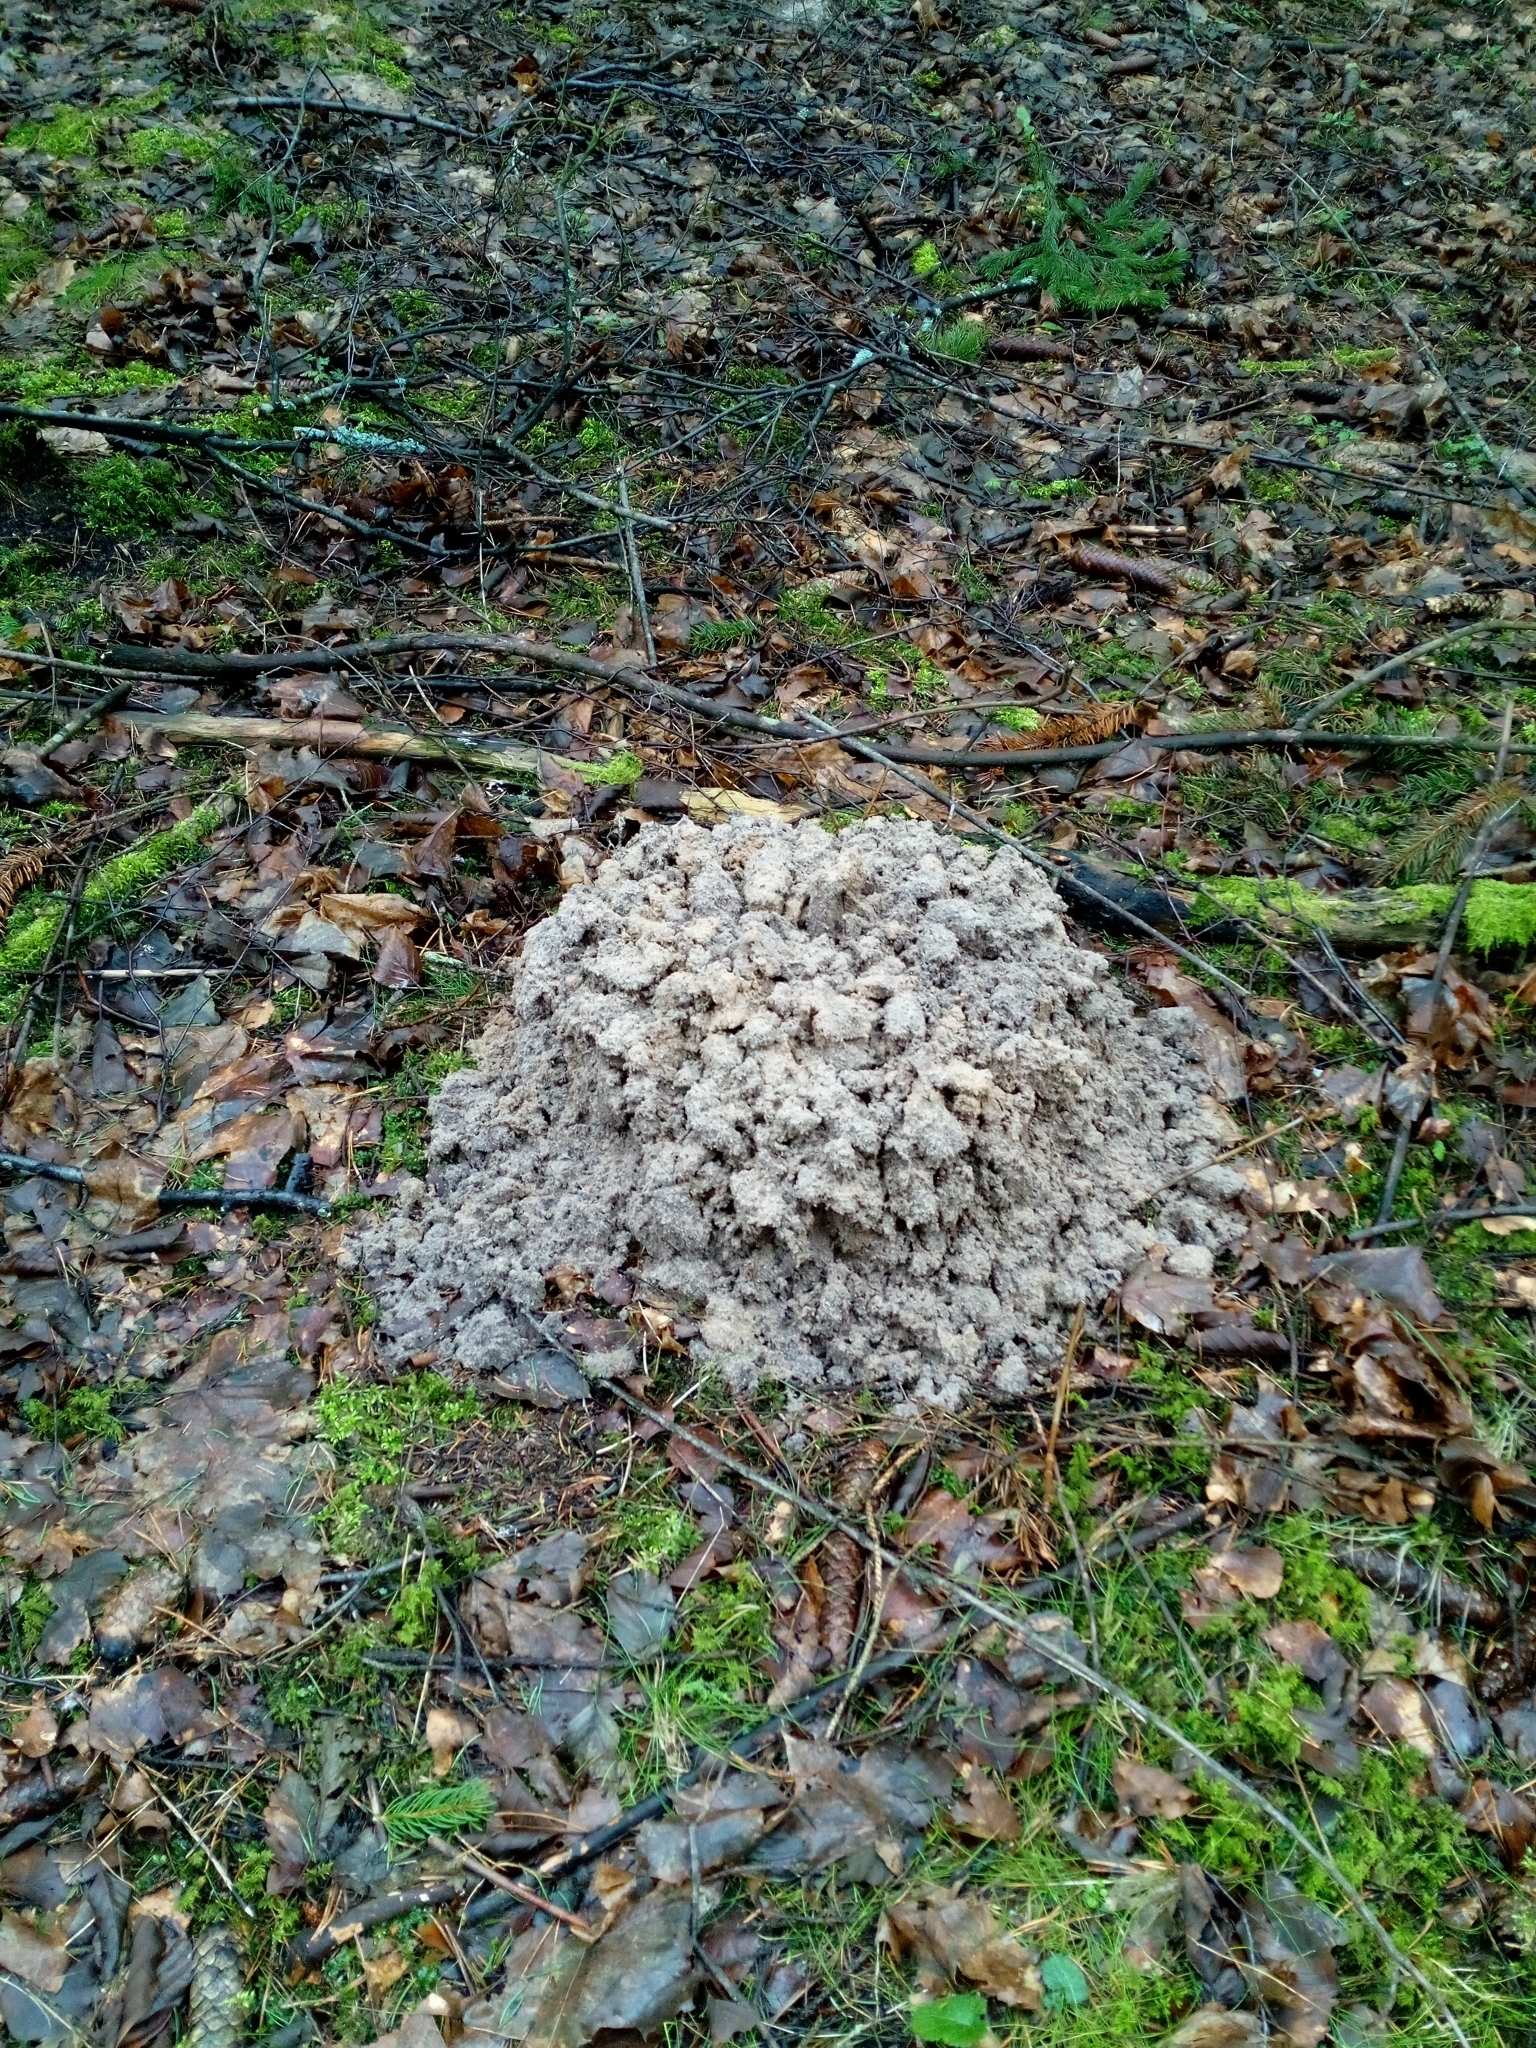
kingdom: Animalia
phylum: Chordata
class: Mammalia
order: Soricomorpha
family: Talpidae
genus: Talpa
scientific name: Talpa europaea
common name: European mole
